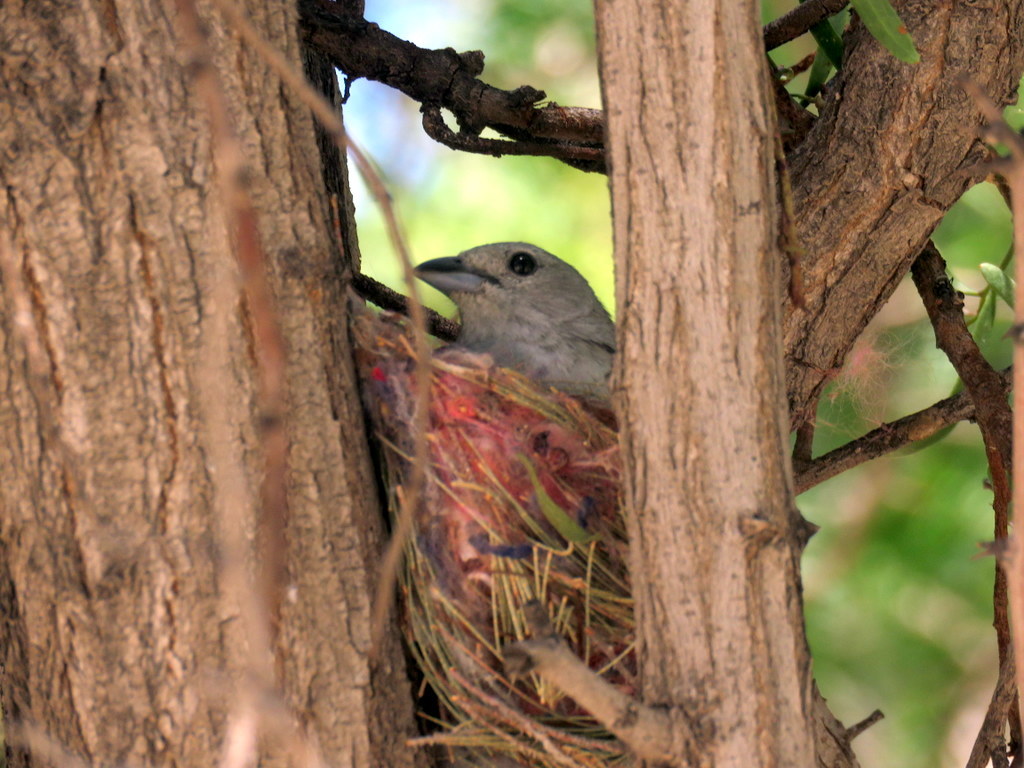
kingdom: Animalia
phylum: Chordata
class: Aves
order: Passeriformes
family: Thraupidae
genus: Thraupis
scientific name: Thraupis sayaca
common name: Sayaca tanager
